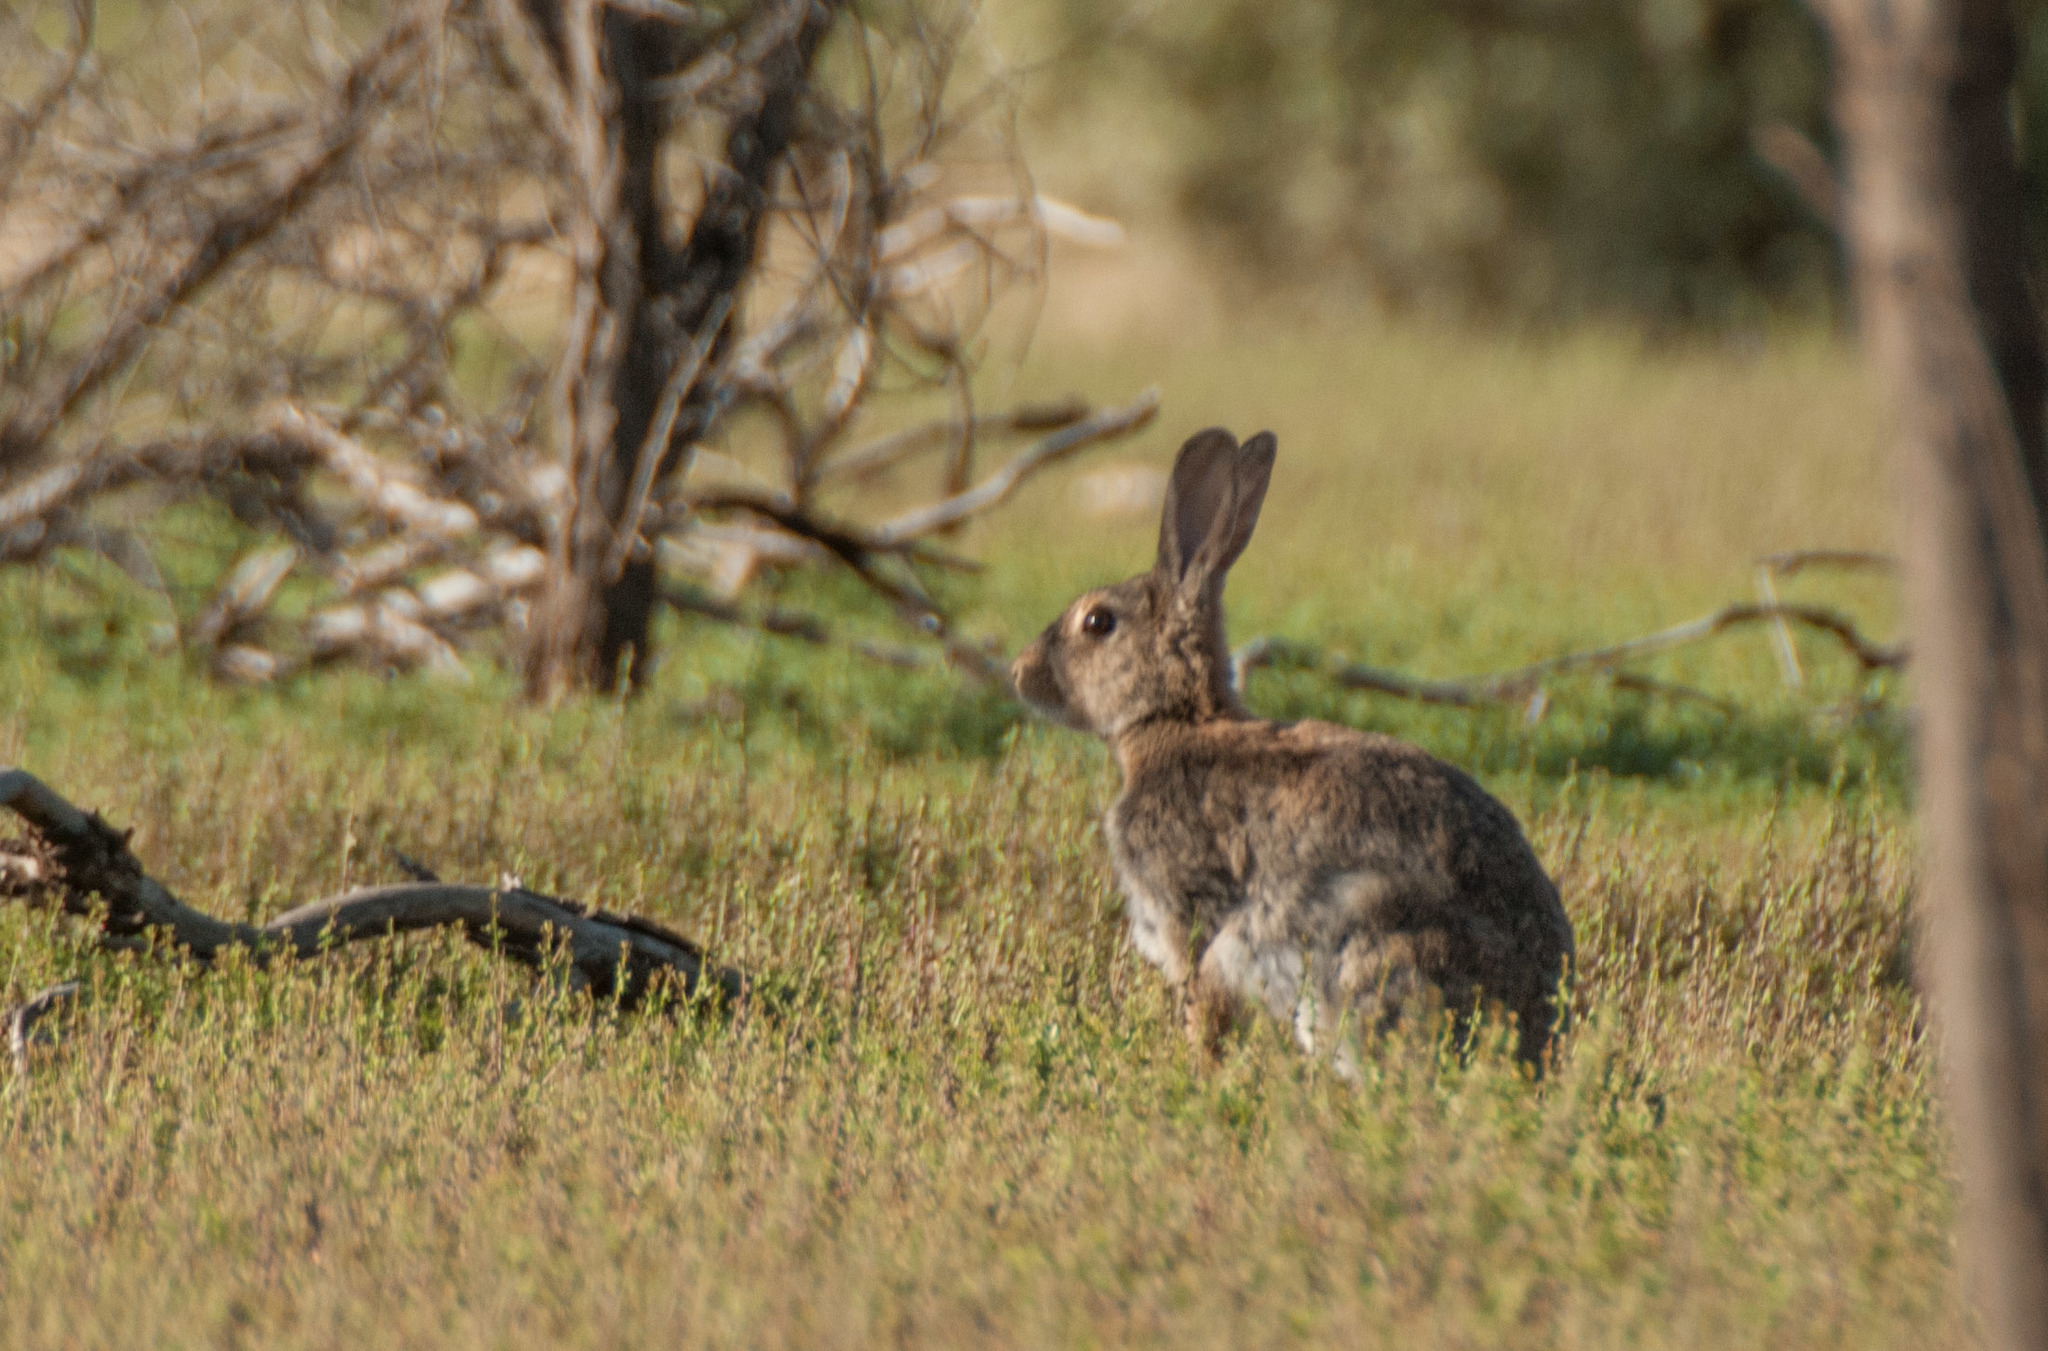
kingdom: Animalia
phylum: Chordata
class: Mammalia
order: Lagomorpha
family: Leporidae
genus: Oryctolagus
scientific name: Oryctolagus cuniculus
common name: European rabbit
